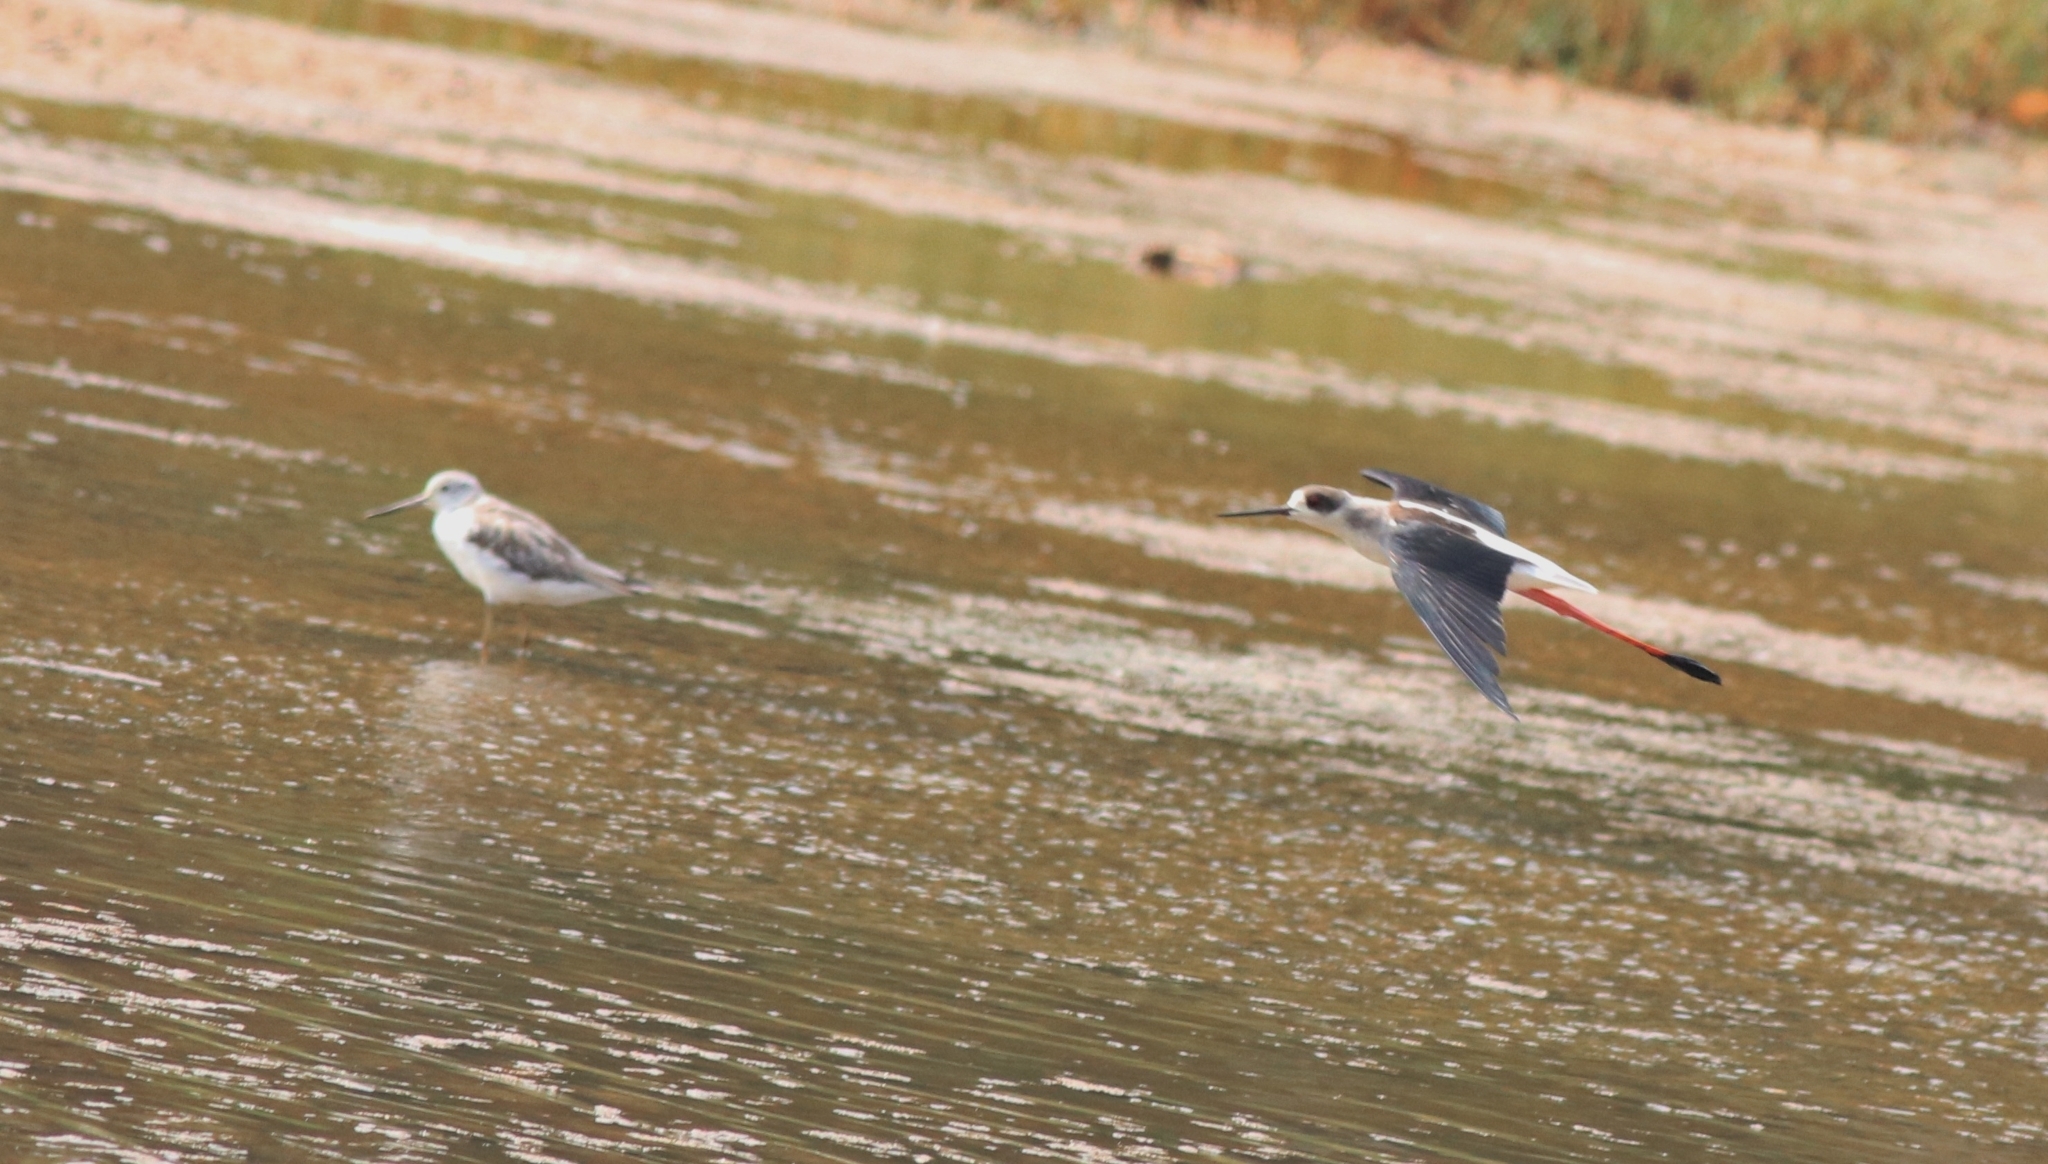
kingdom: Animalia
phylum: Chordata
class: Aves
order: Charadriiformes
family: Scolopacidae
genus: Tringa
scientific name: Tringa nebularia
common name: Common greenshank
